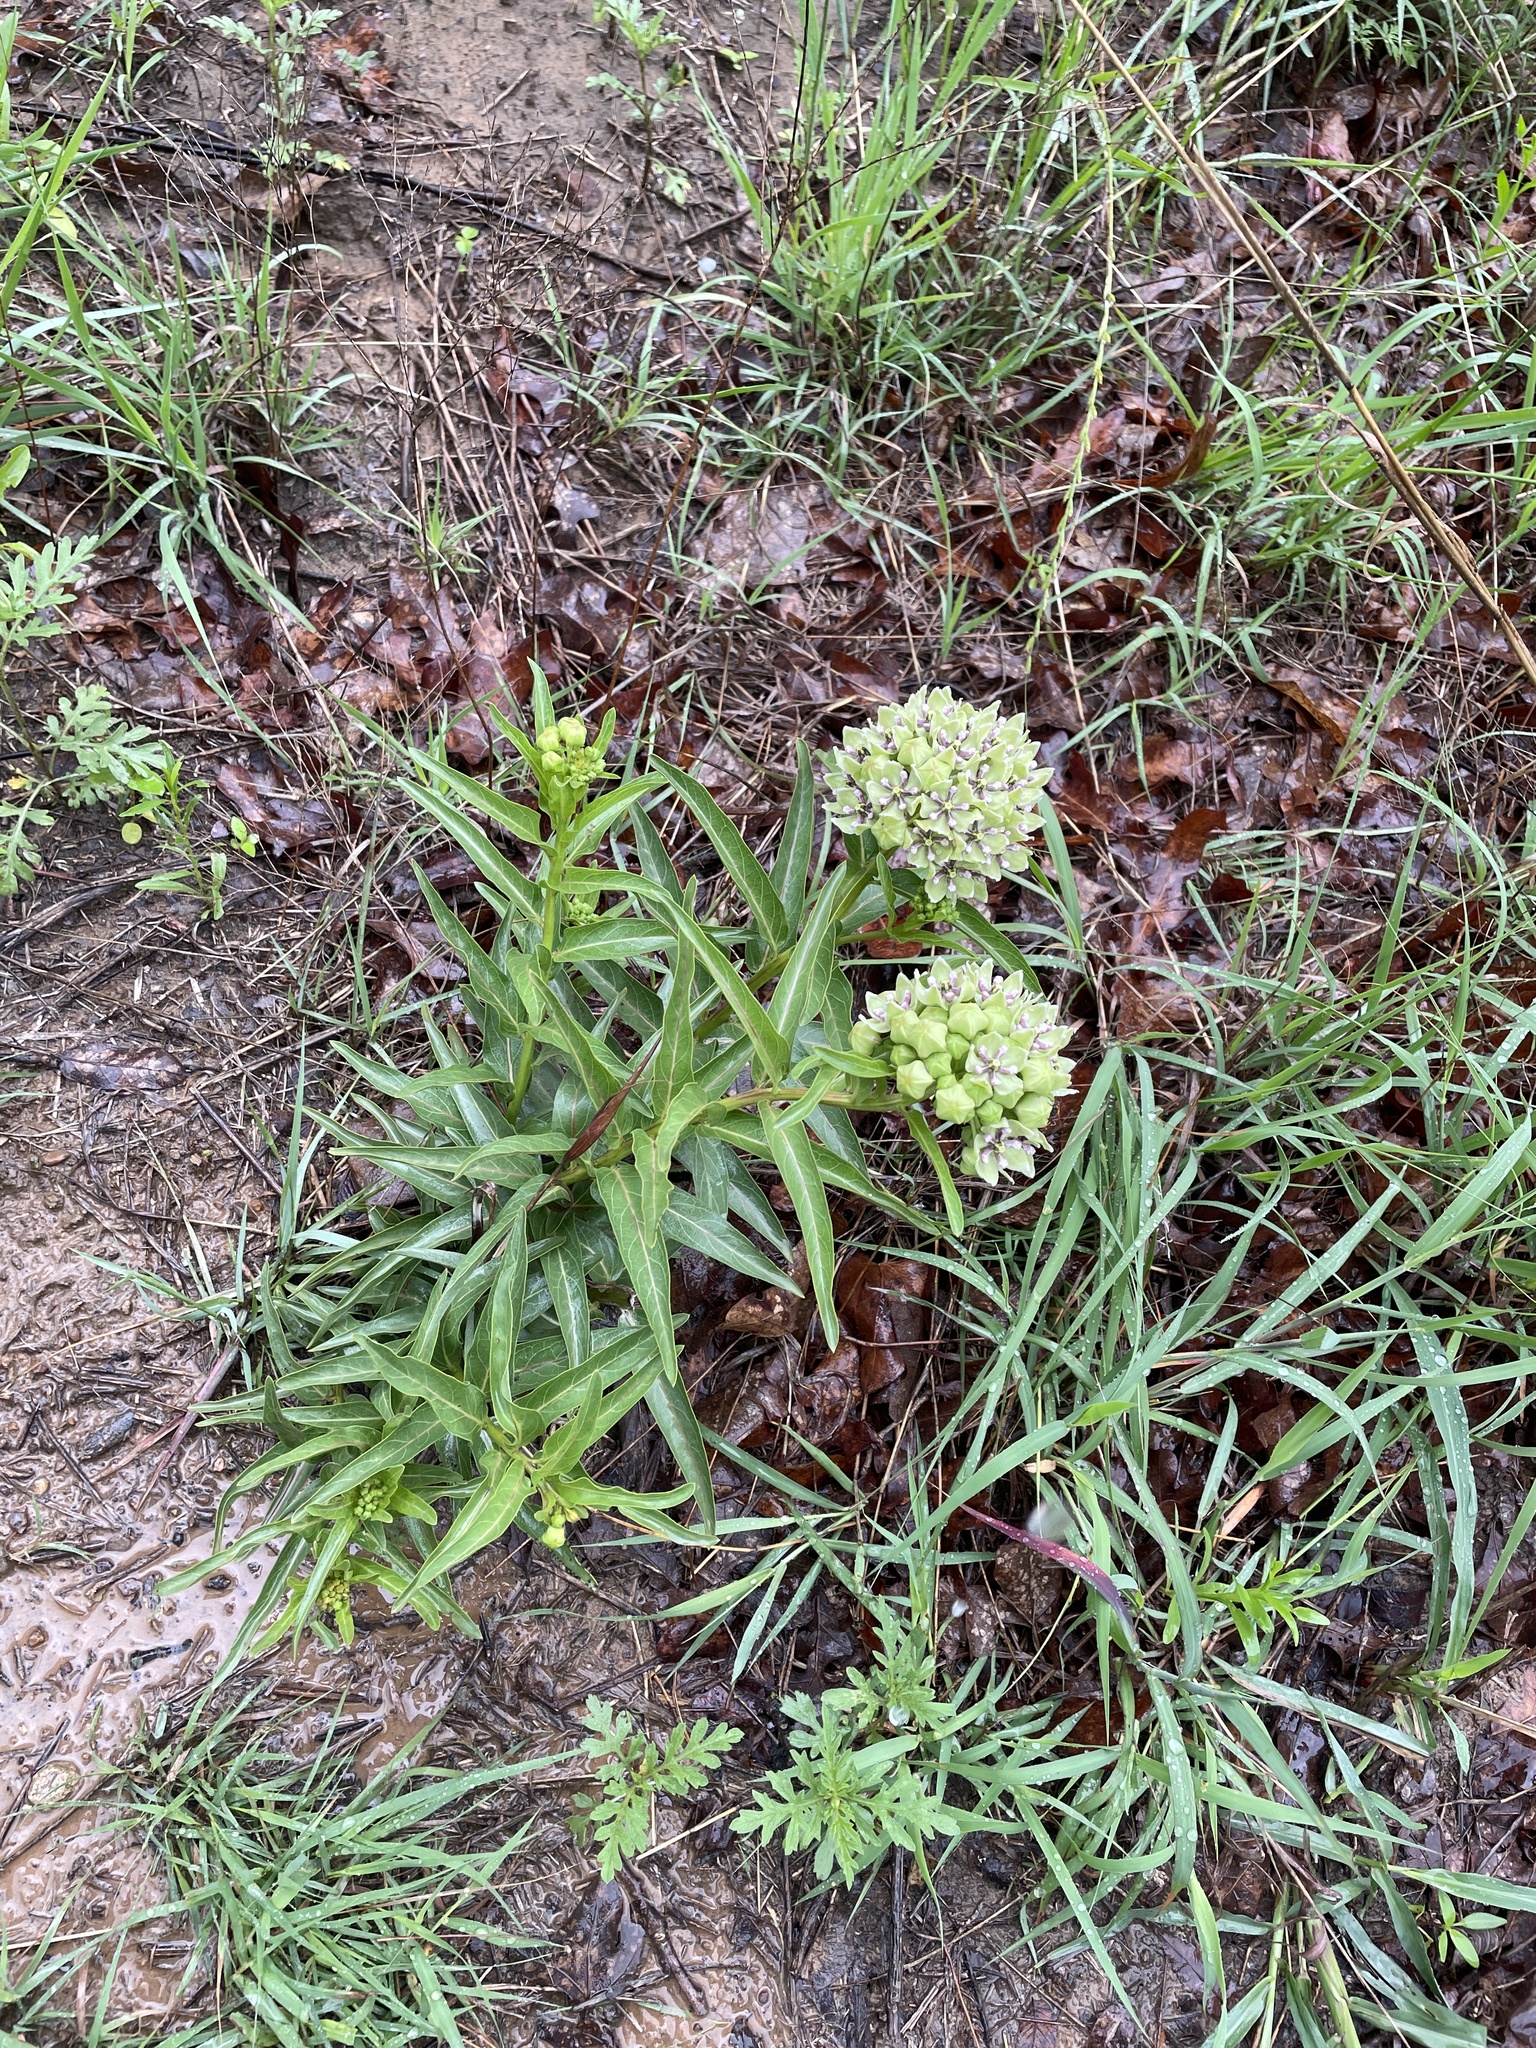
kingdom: Plantae
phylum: Tracheophyta
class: Magnoliopsida
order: Gentianales
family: Apocynaceae
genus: Asclepias
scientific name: Asclepias viridis
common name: Antelope-horns
